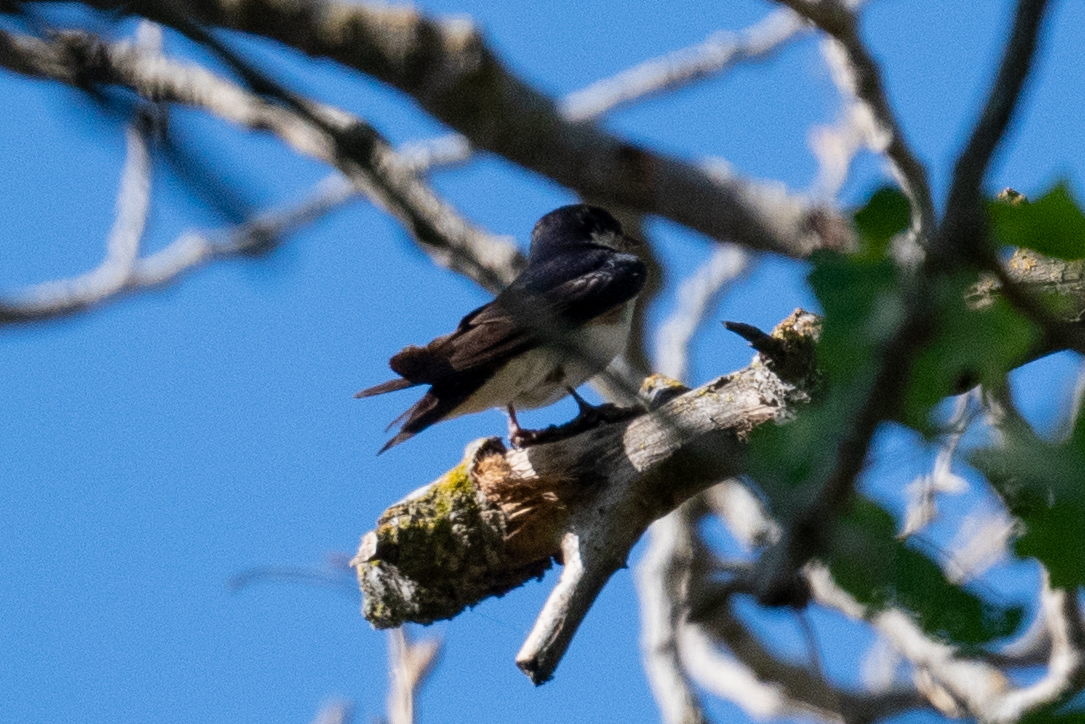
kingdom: Animalia
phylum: Chordata
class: Aves
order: Passeriformes
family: Hirundinidae
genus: Tachycineta
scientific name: Tachycineta bicolor
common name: Tree swallow
